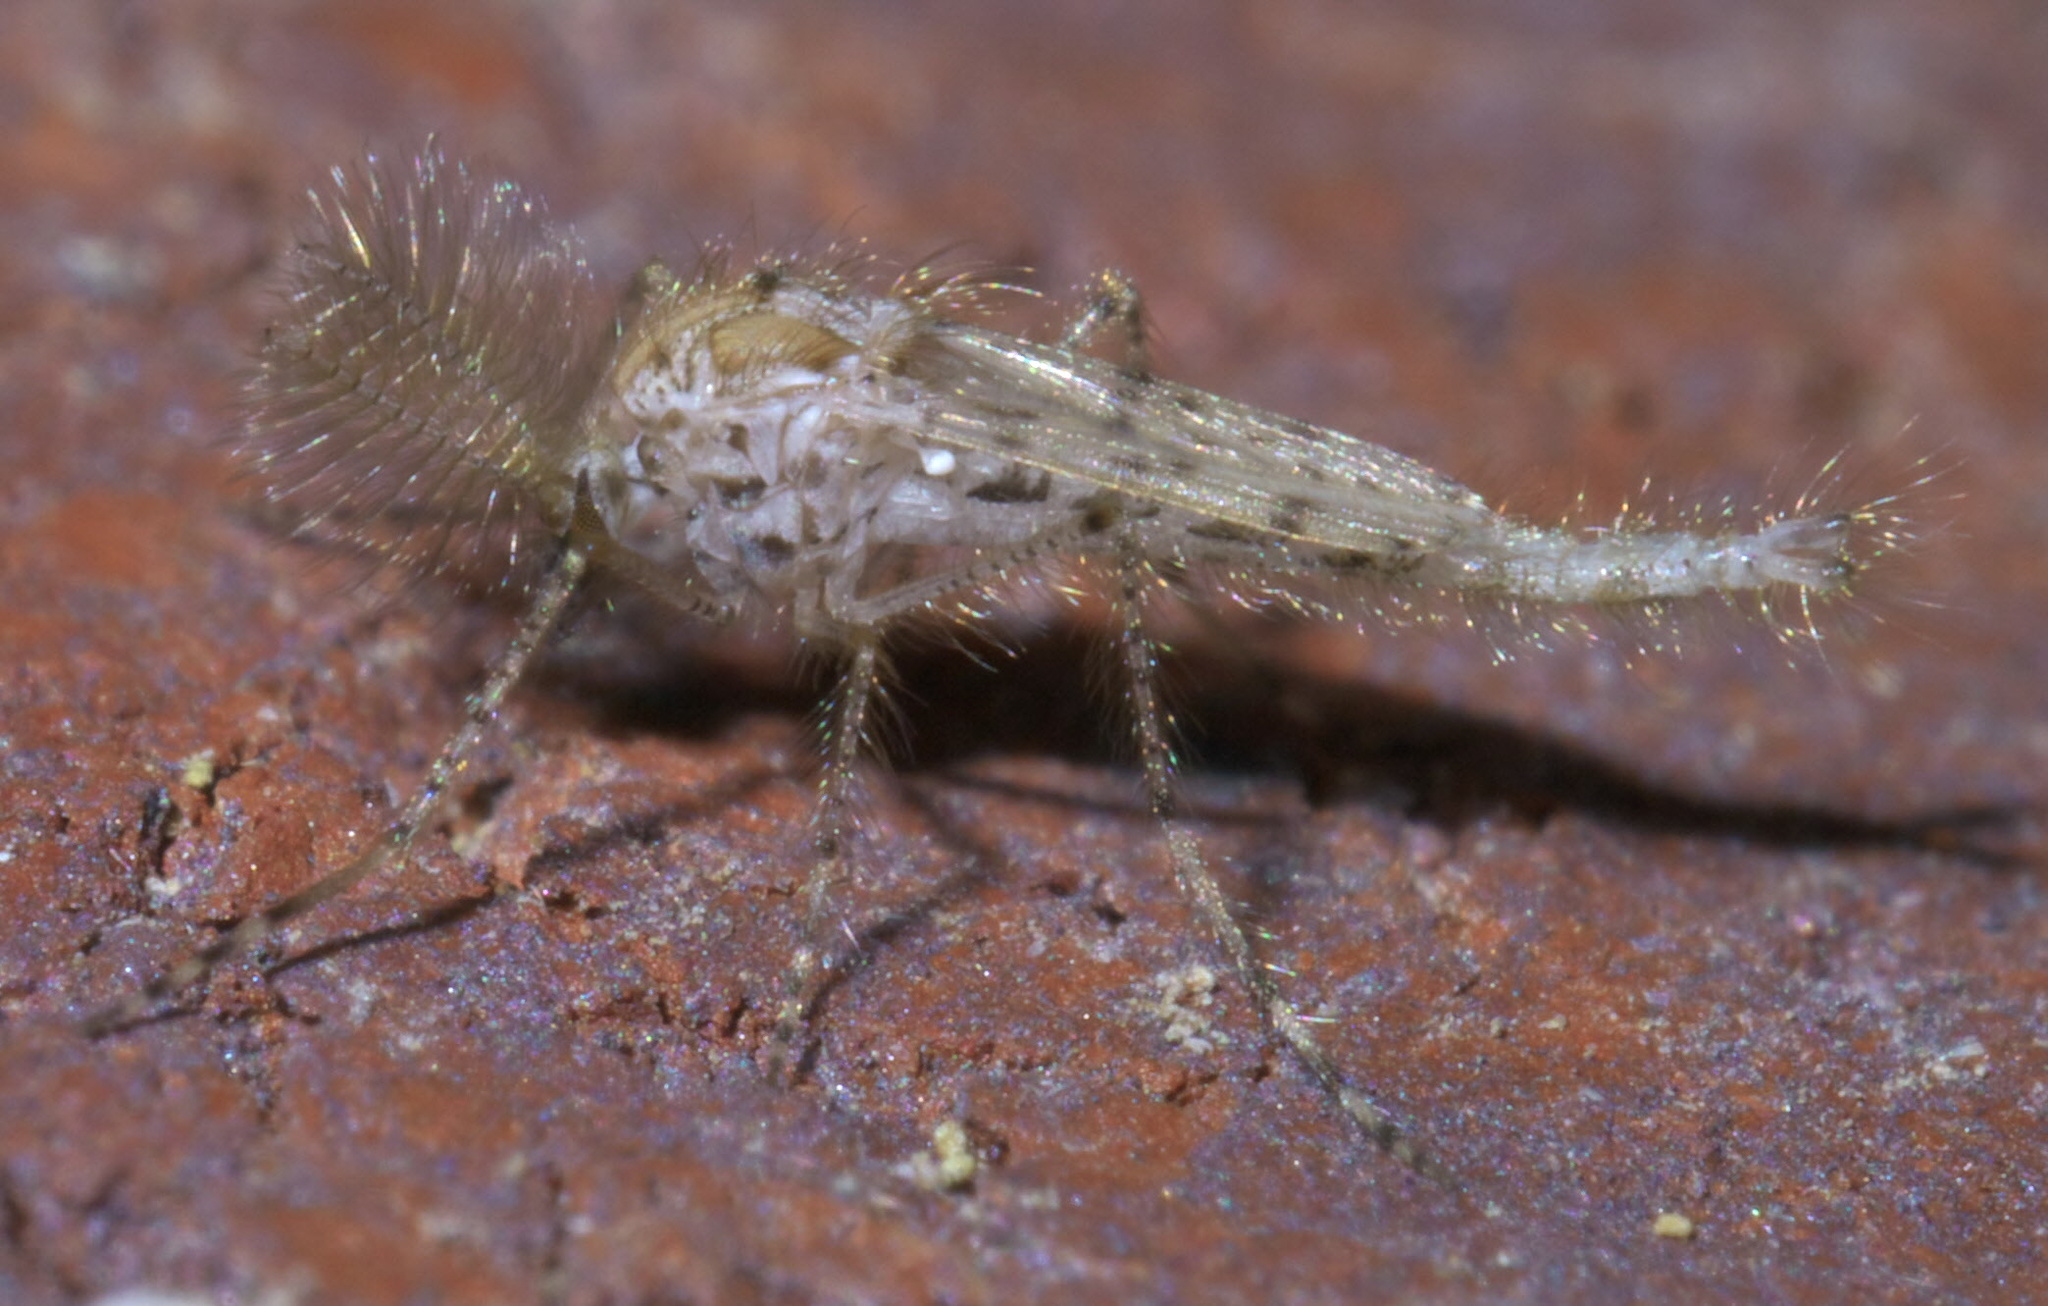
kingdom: Animalia
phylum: Arthropoda
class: Insecta
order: Diptera
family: Chaoboridae
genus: Chaoborus
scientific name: Chaoborus punctipennis
